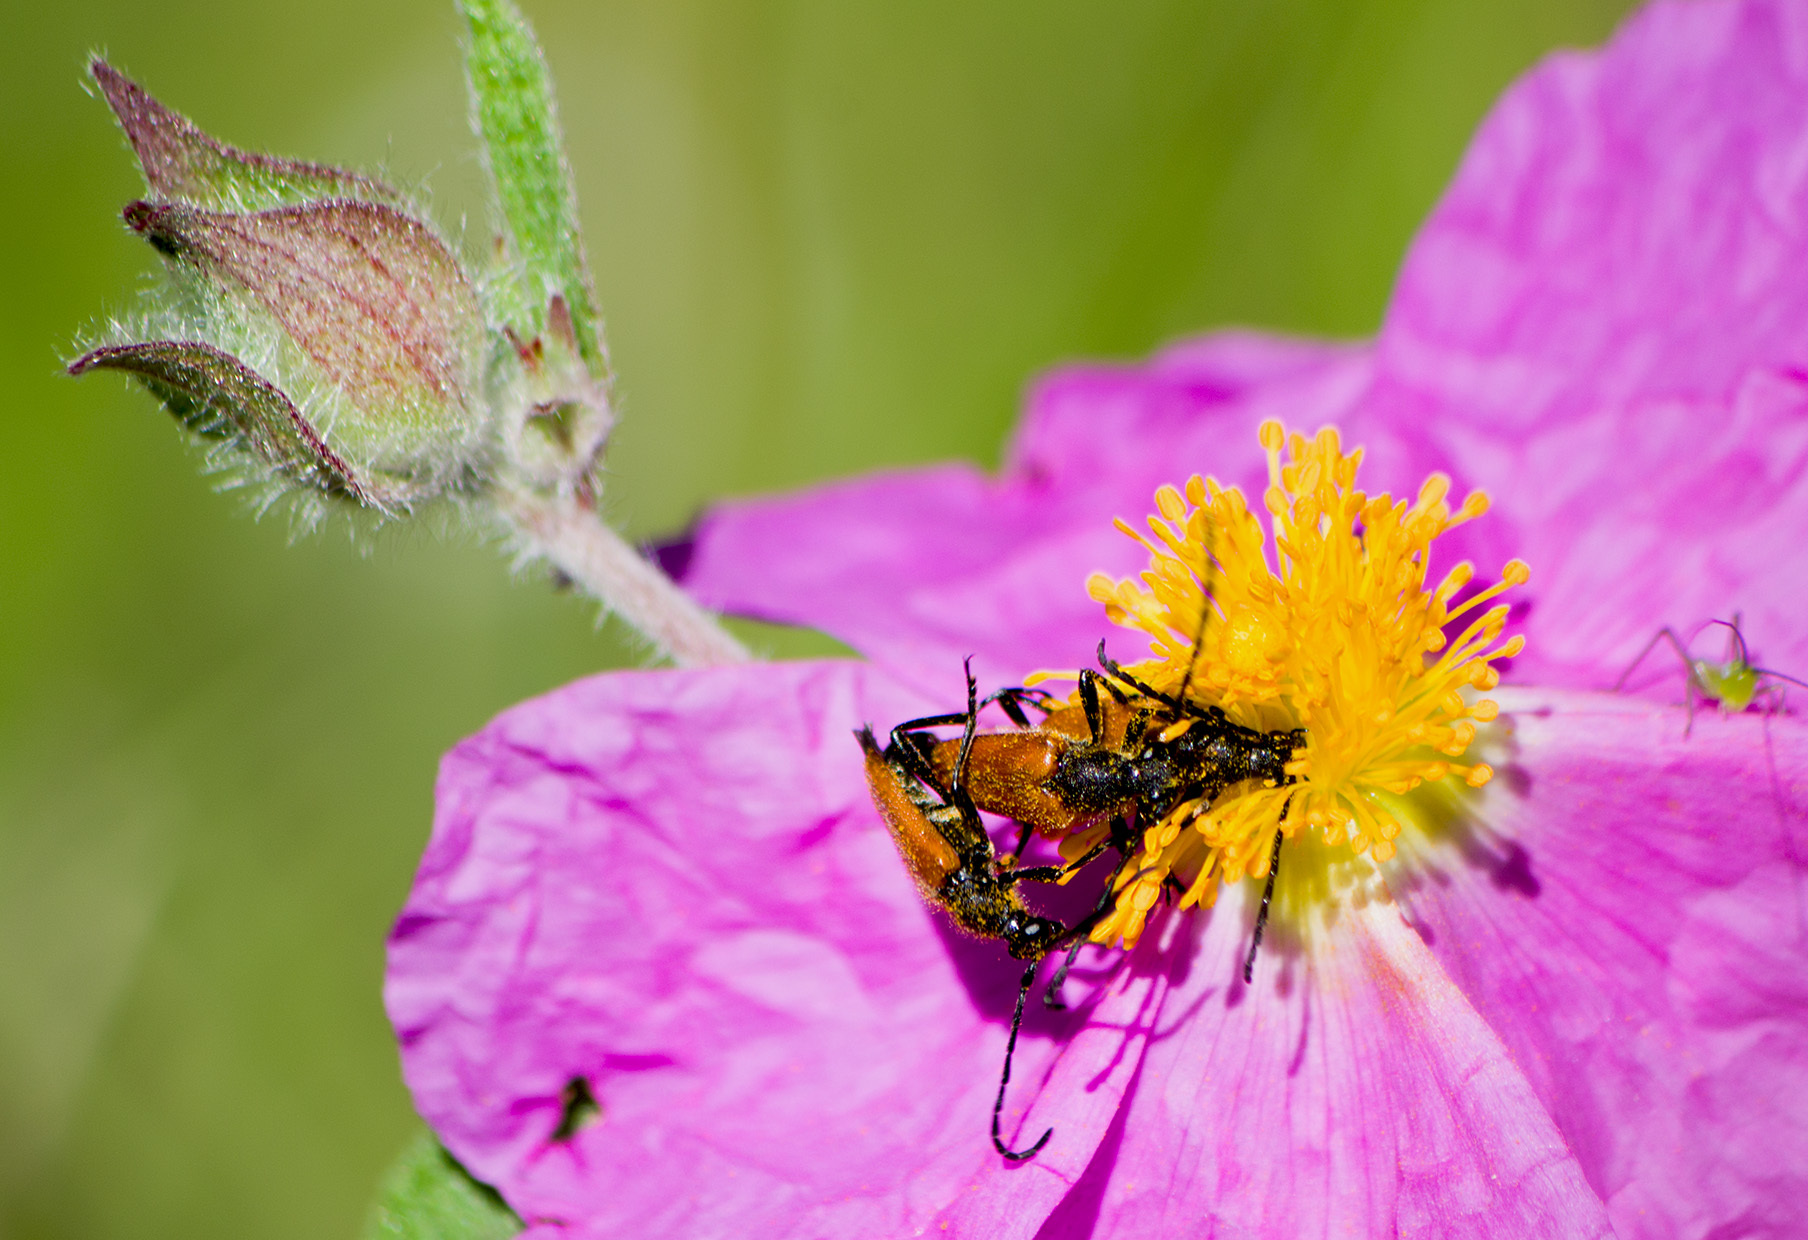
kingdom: Animalia
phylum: Arthropoda
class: Insecta
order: Coleoptera
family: Cerambycidae
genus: Pseudovadonia
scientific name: Pseudovadonia livida
